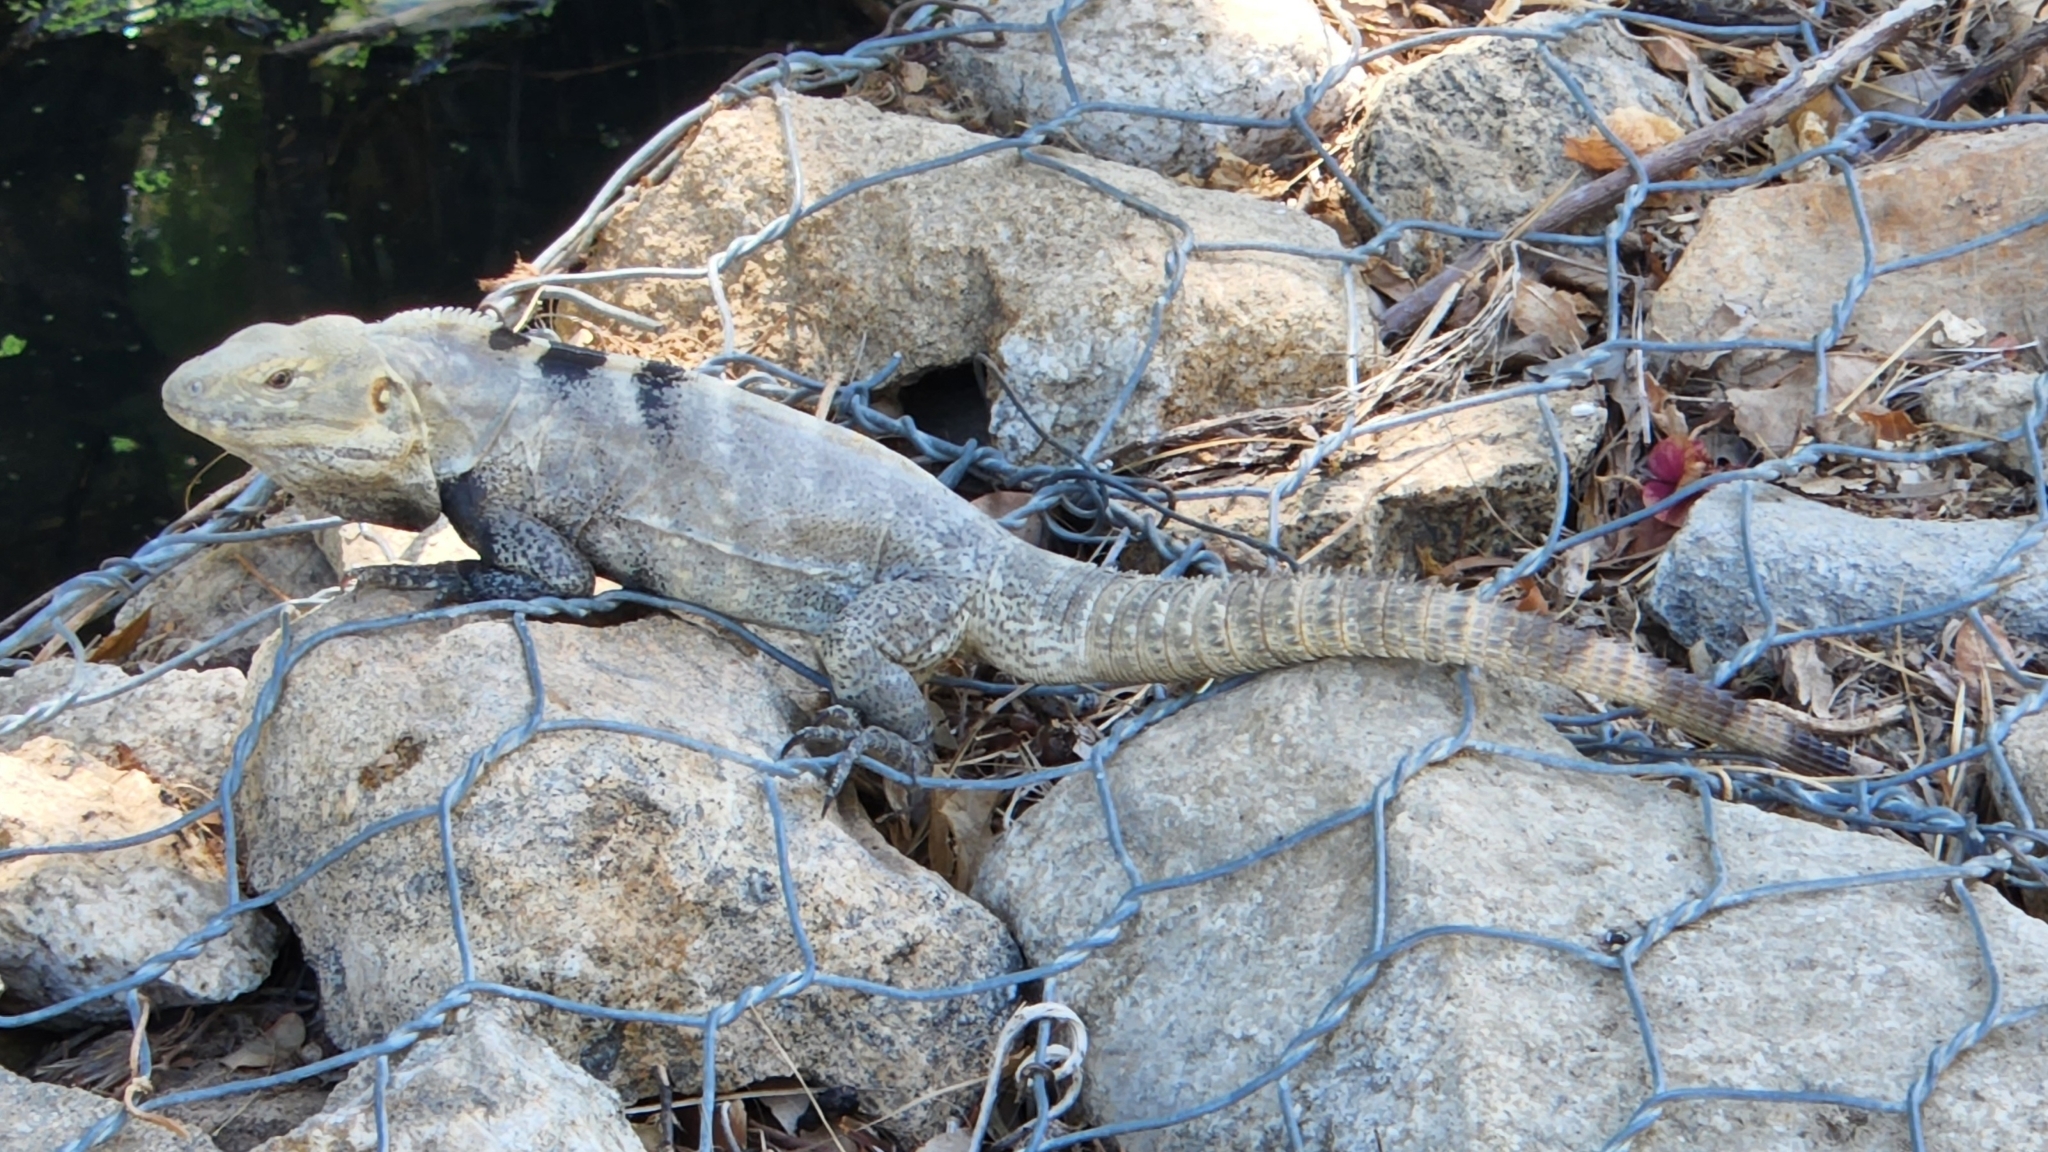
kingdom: Animalia
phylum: Chordata
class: Squamata
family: Iguanidae
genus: Ctenosaura
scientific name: Ctenosaura hemilopha
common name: Baja california spiny- tailed iguana
